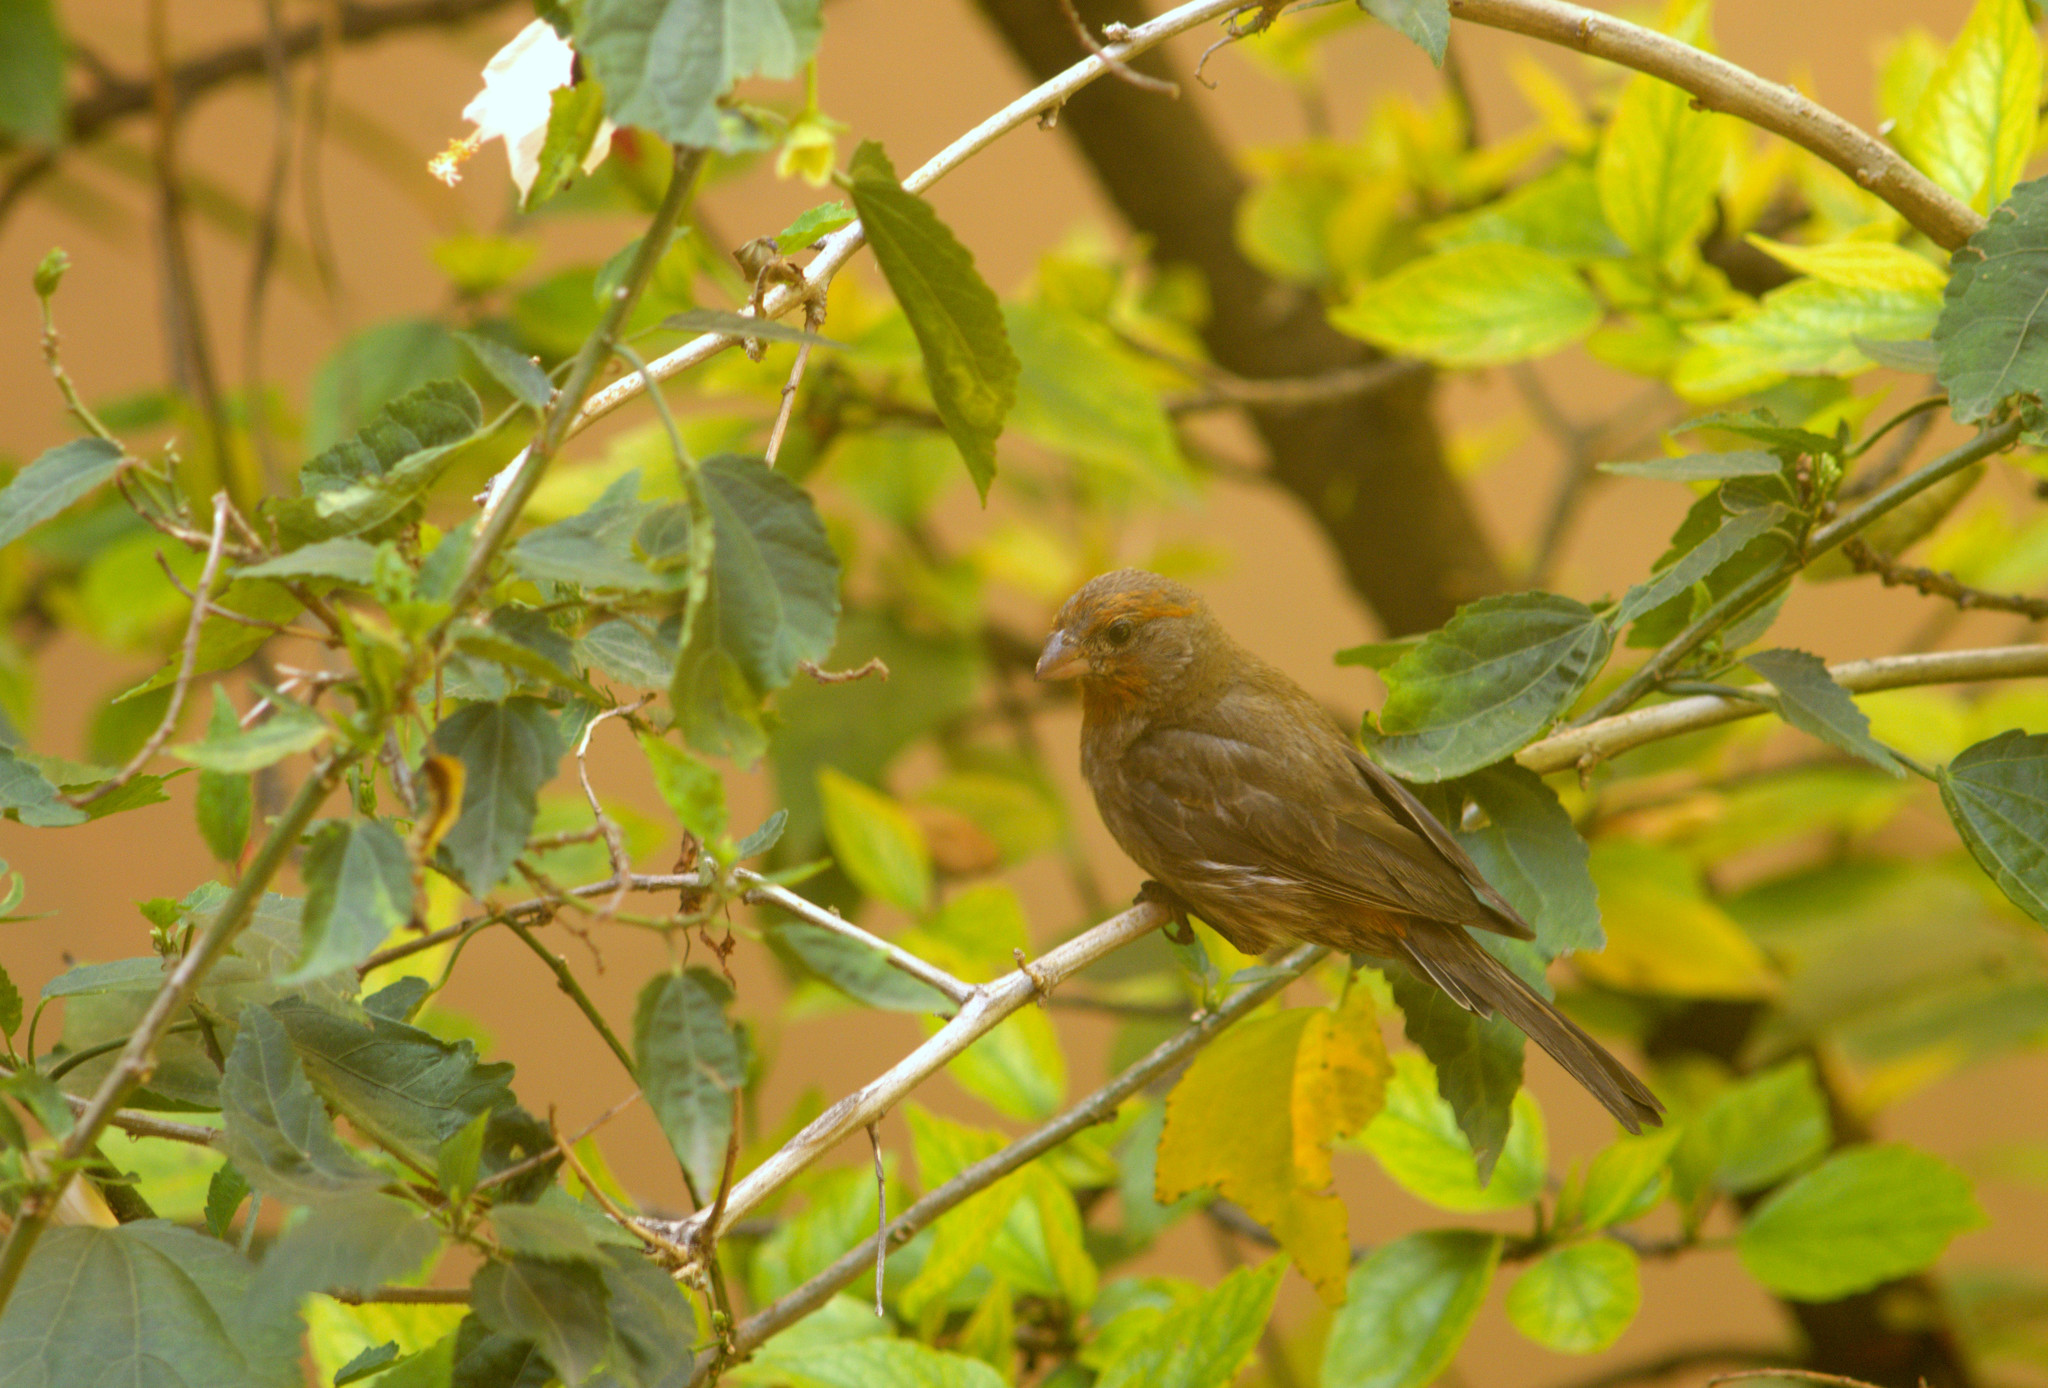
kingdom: Animalia
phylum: Chordata
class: Aves
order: Passeriformes
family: Fringillidae
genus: Haemorhous
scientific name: Haemorhous mexicanus
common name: House finch
